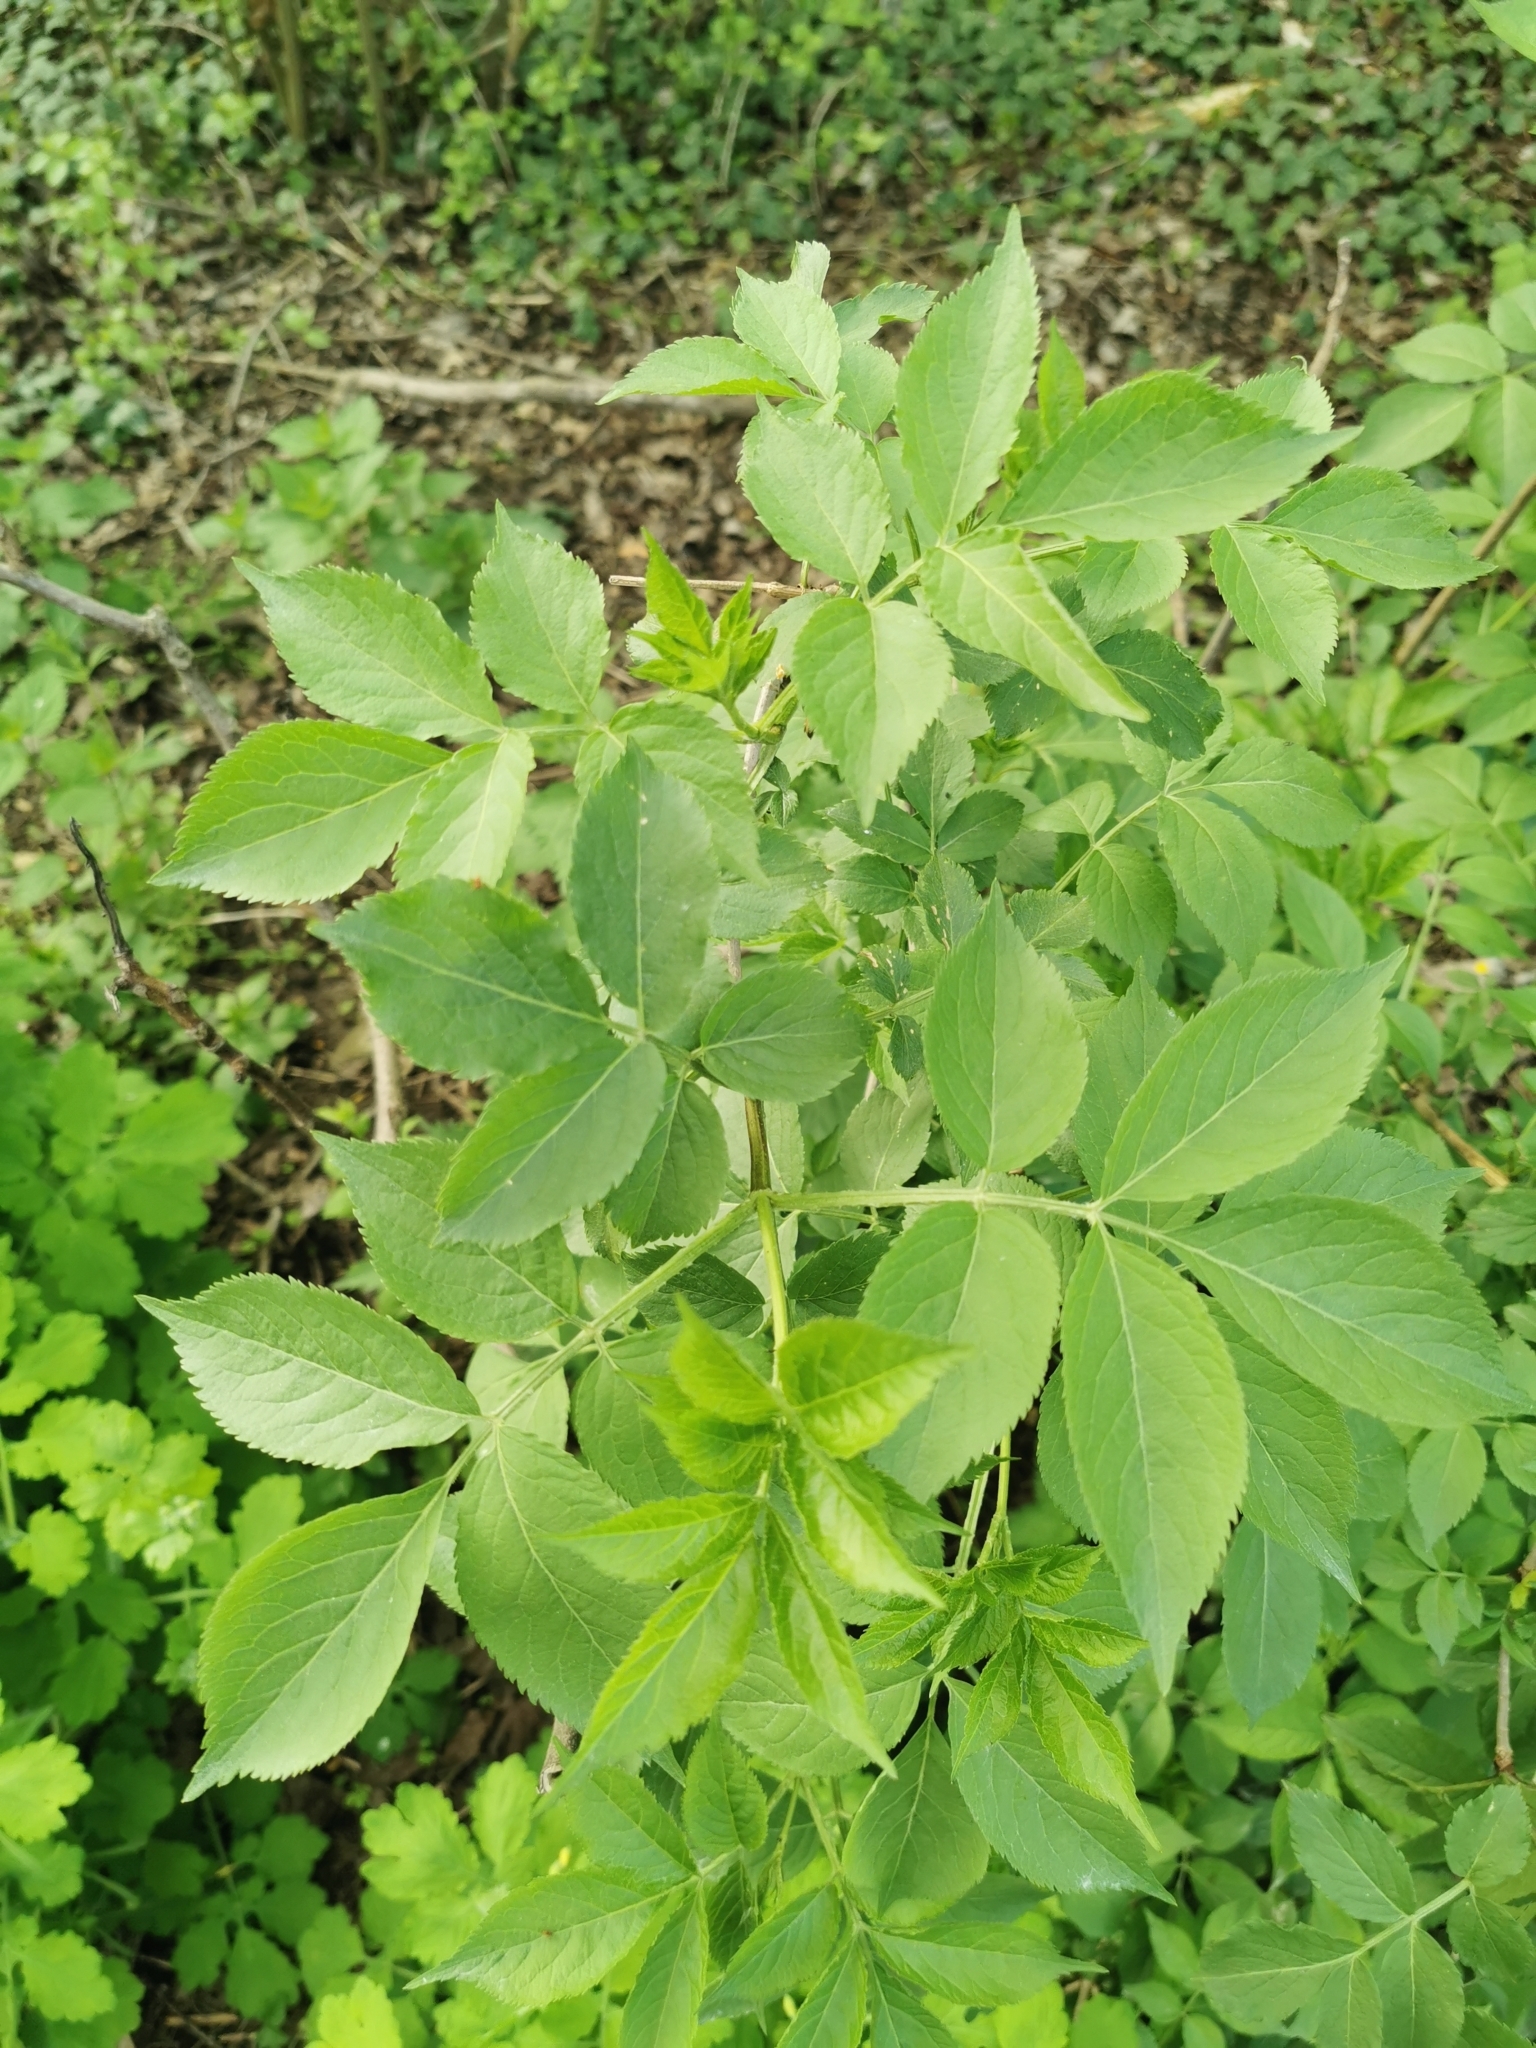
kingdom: Plantae
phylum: Tracheophyta
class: Magnoliopsida
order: Dipsacales
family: Viburnaceae
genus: Sambucus
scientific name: Sambucus nigra
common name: Elder
